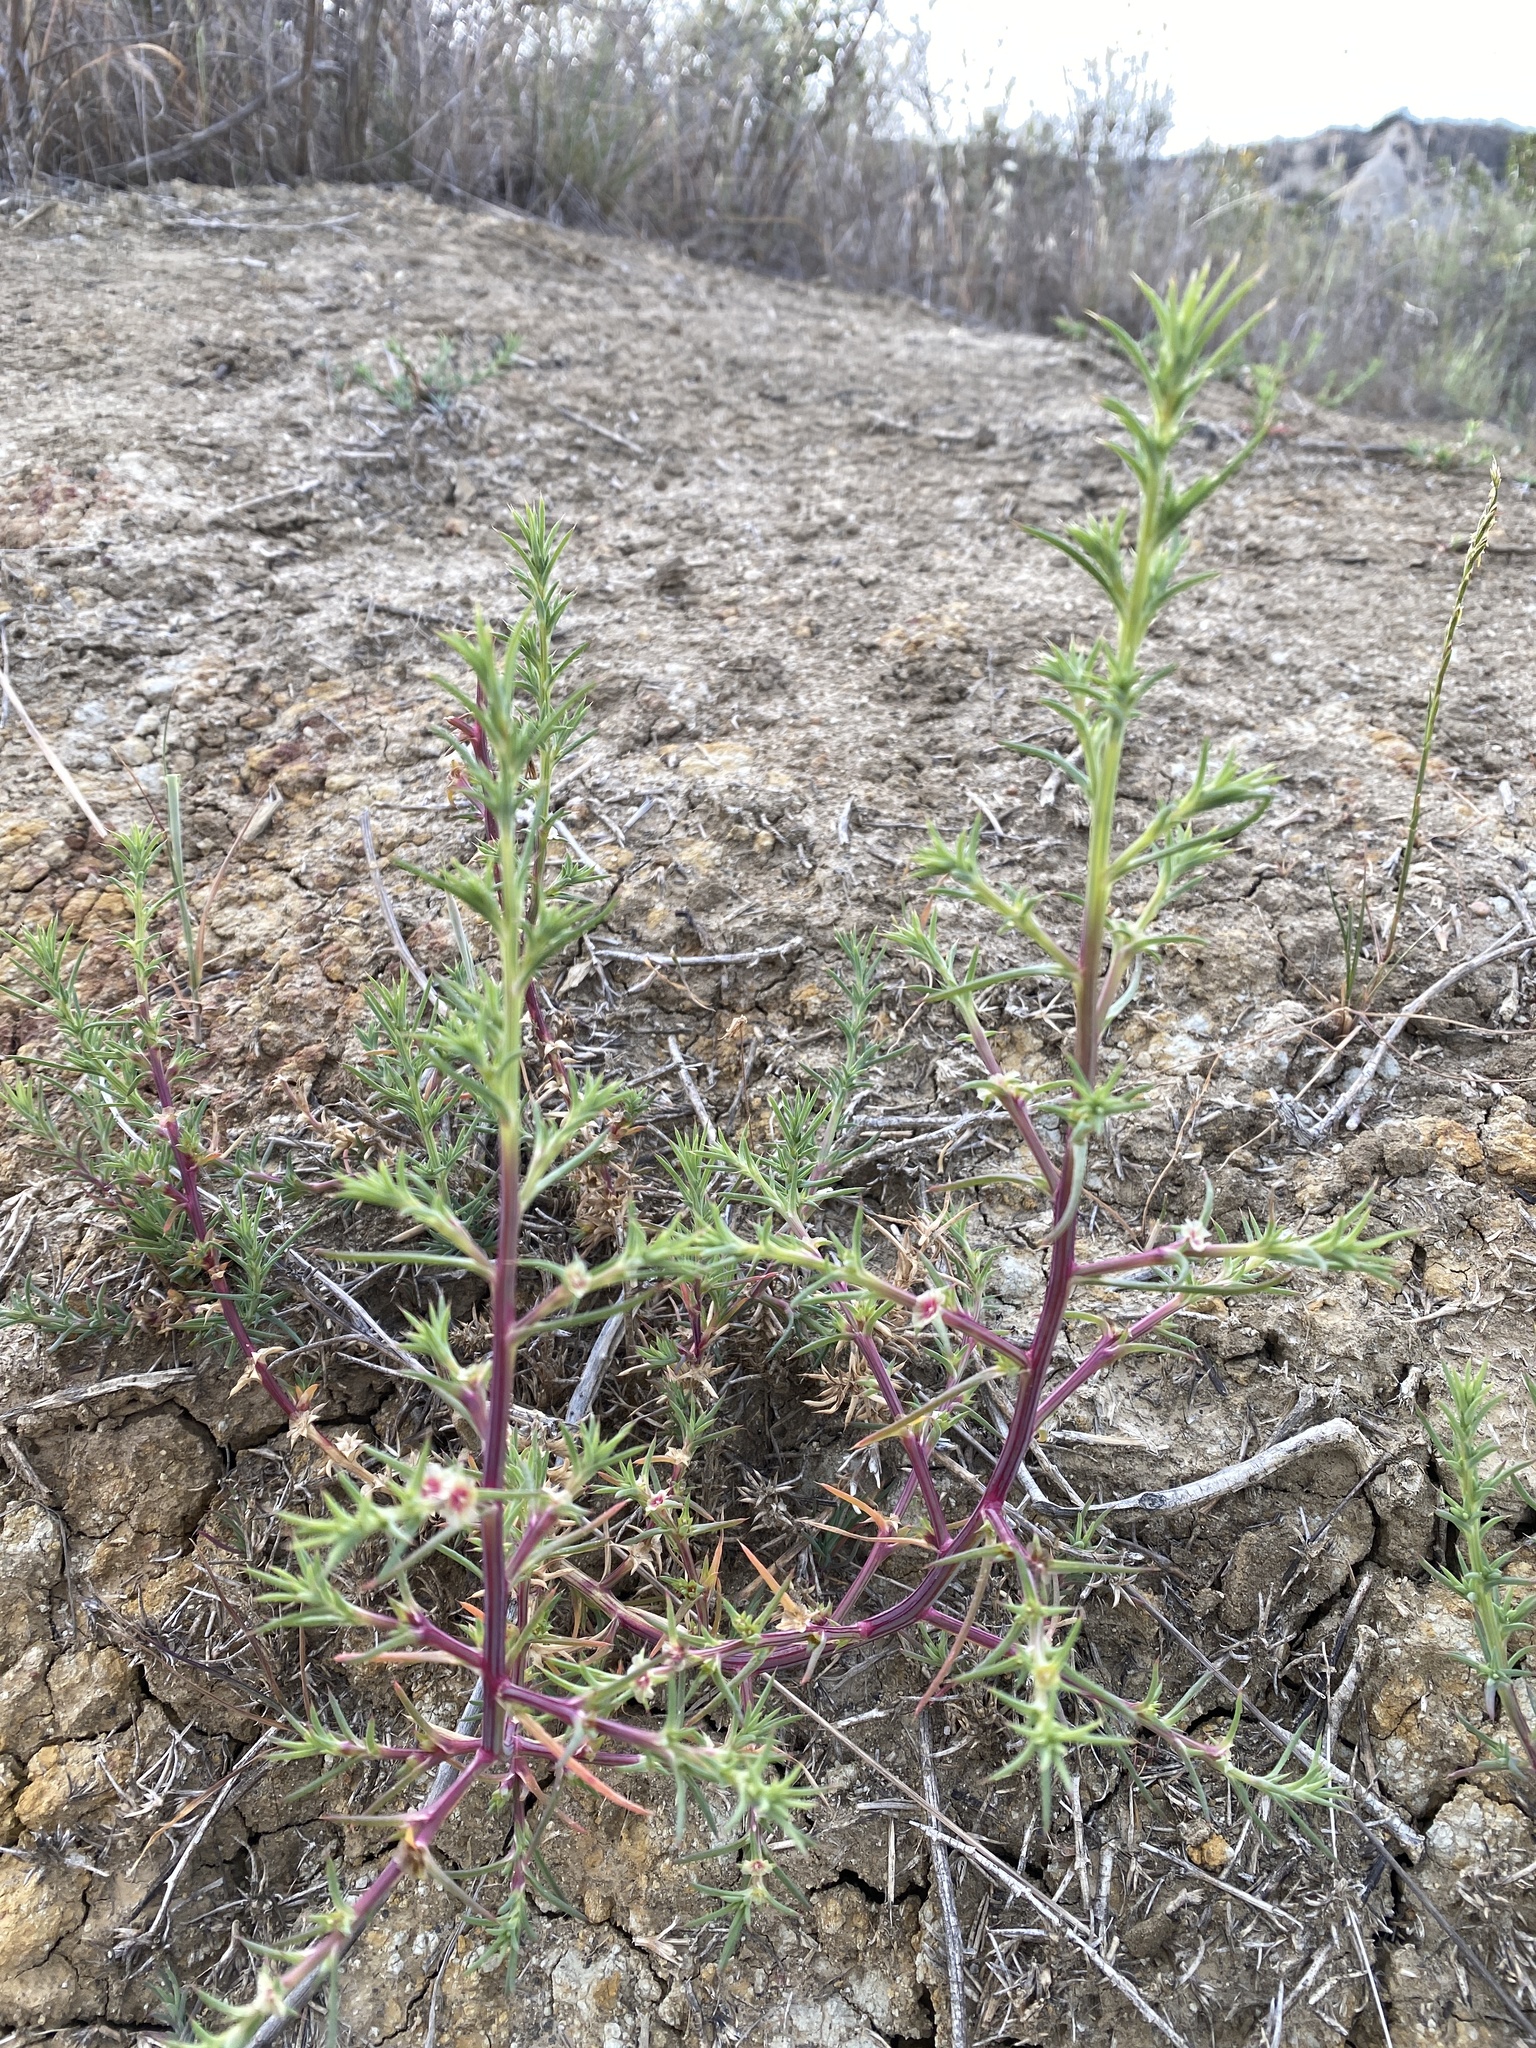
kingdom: Plantae
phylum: Tracheophyta
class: Magnoliopsida
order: Caryophyllales
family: Amaranthaceae
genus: Salsola
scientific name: Salsola australis
